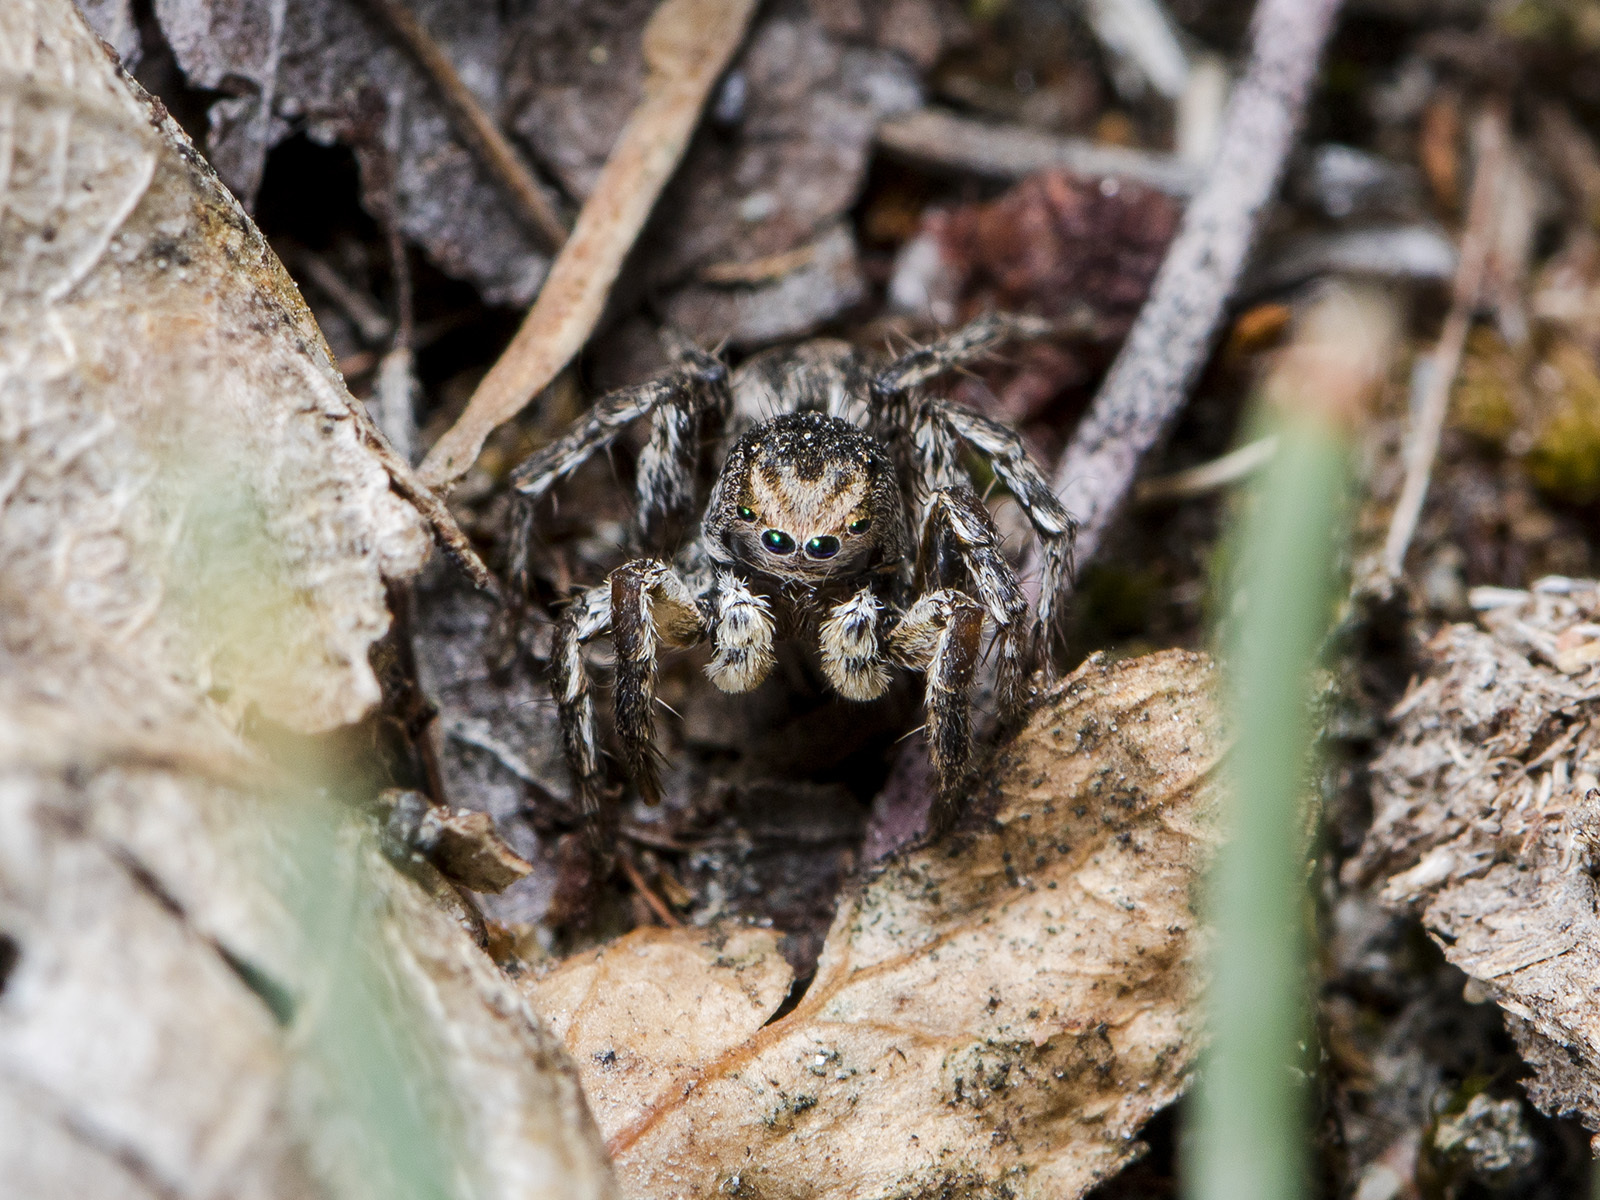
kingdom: Animalia
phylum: Arthropoda
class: Arachnida
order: Araneae
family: Salticidae
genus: Aelurillus
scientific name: Aelurillus v-insignitus
